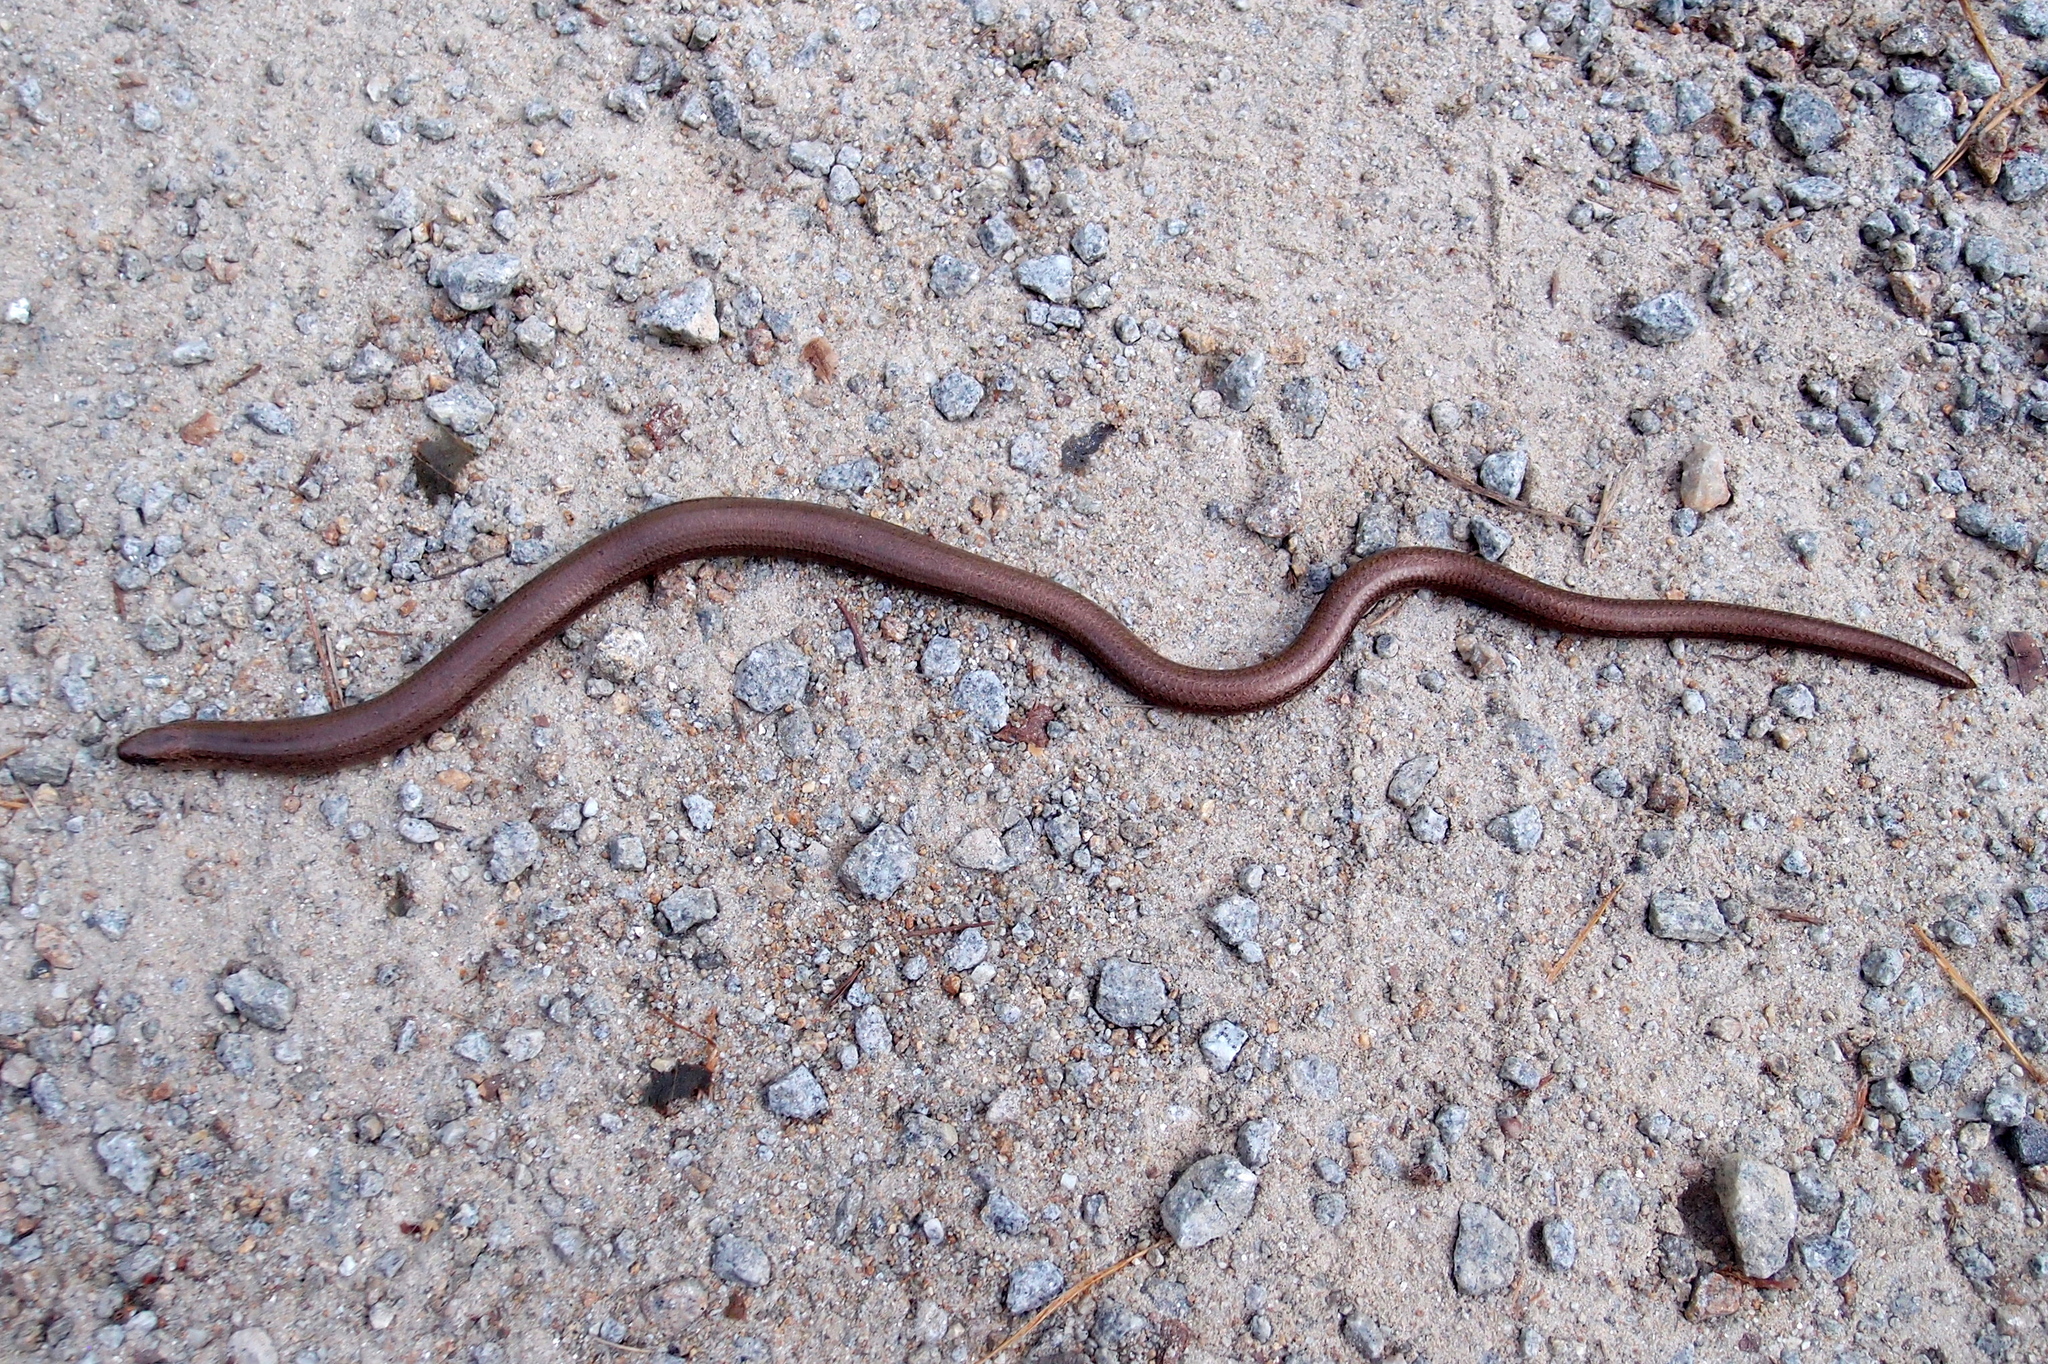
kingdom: Animalia
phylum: Chordata
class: Squamata
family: Anguidae
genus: Anguis
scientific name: Anguis fragilis
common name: Slow worm
